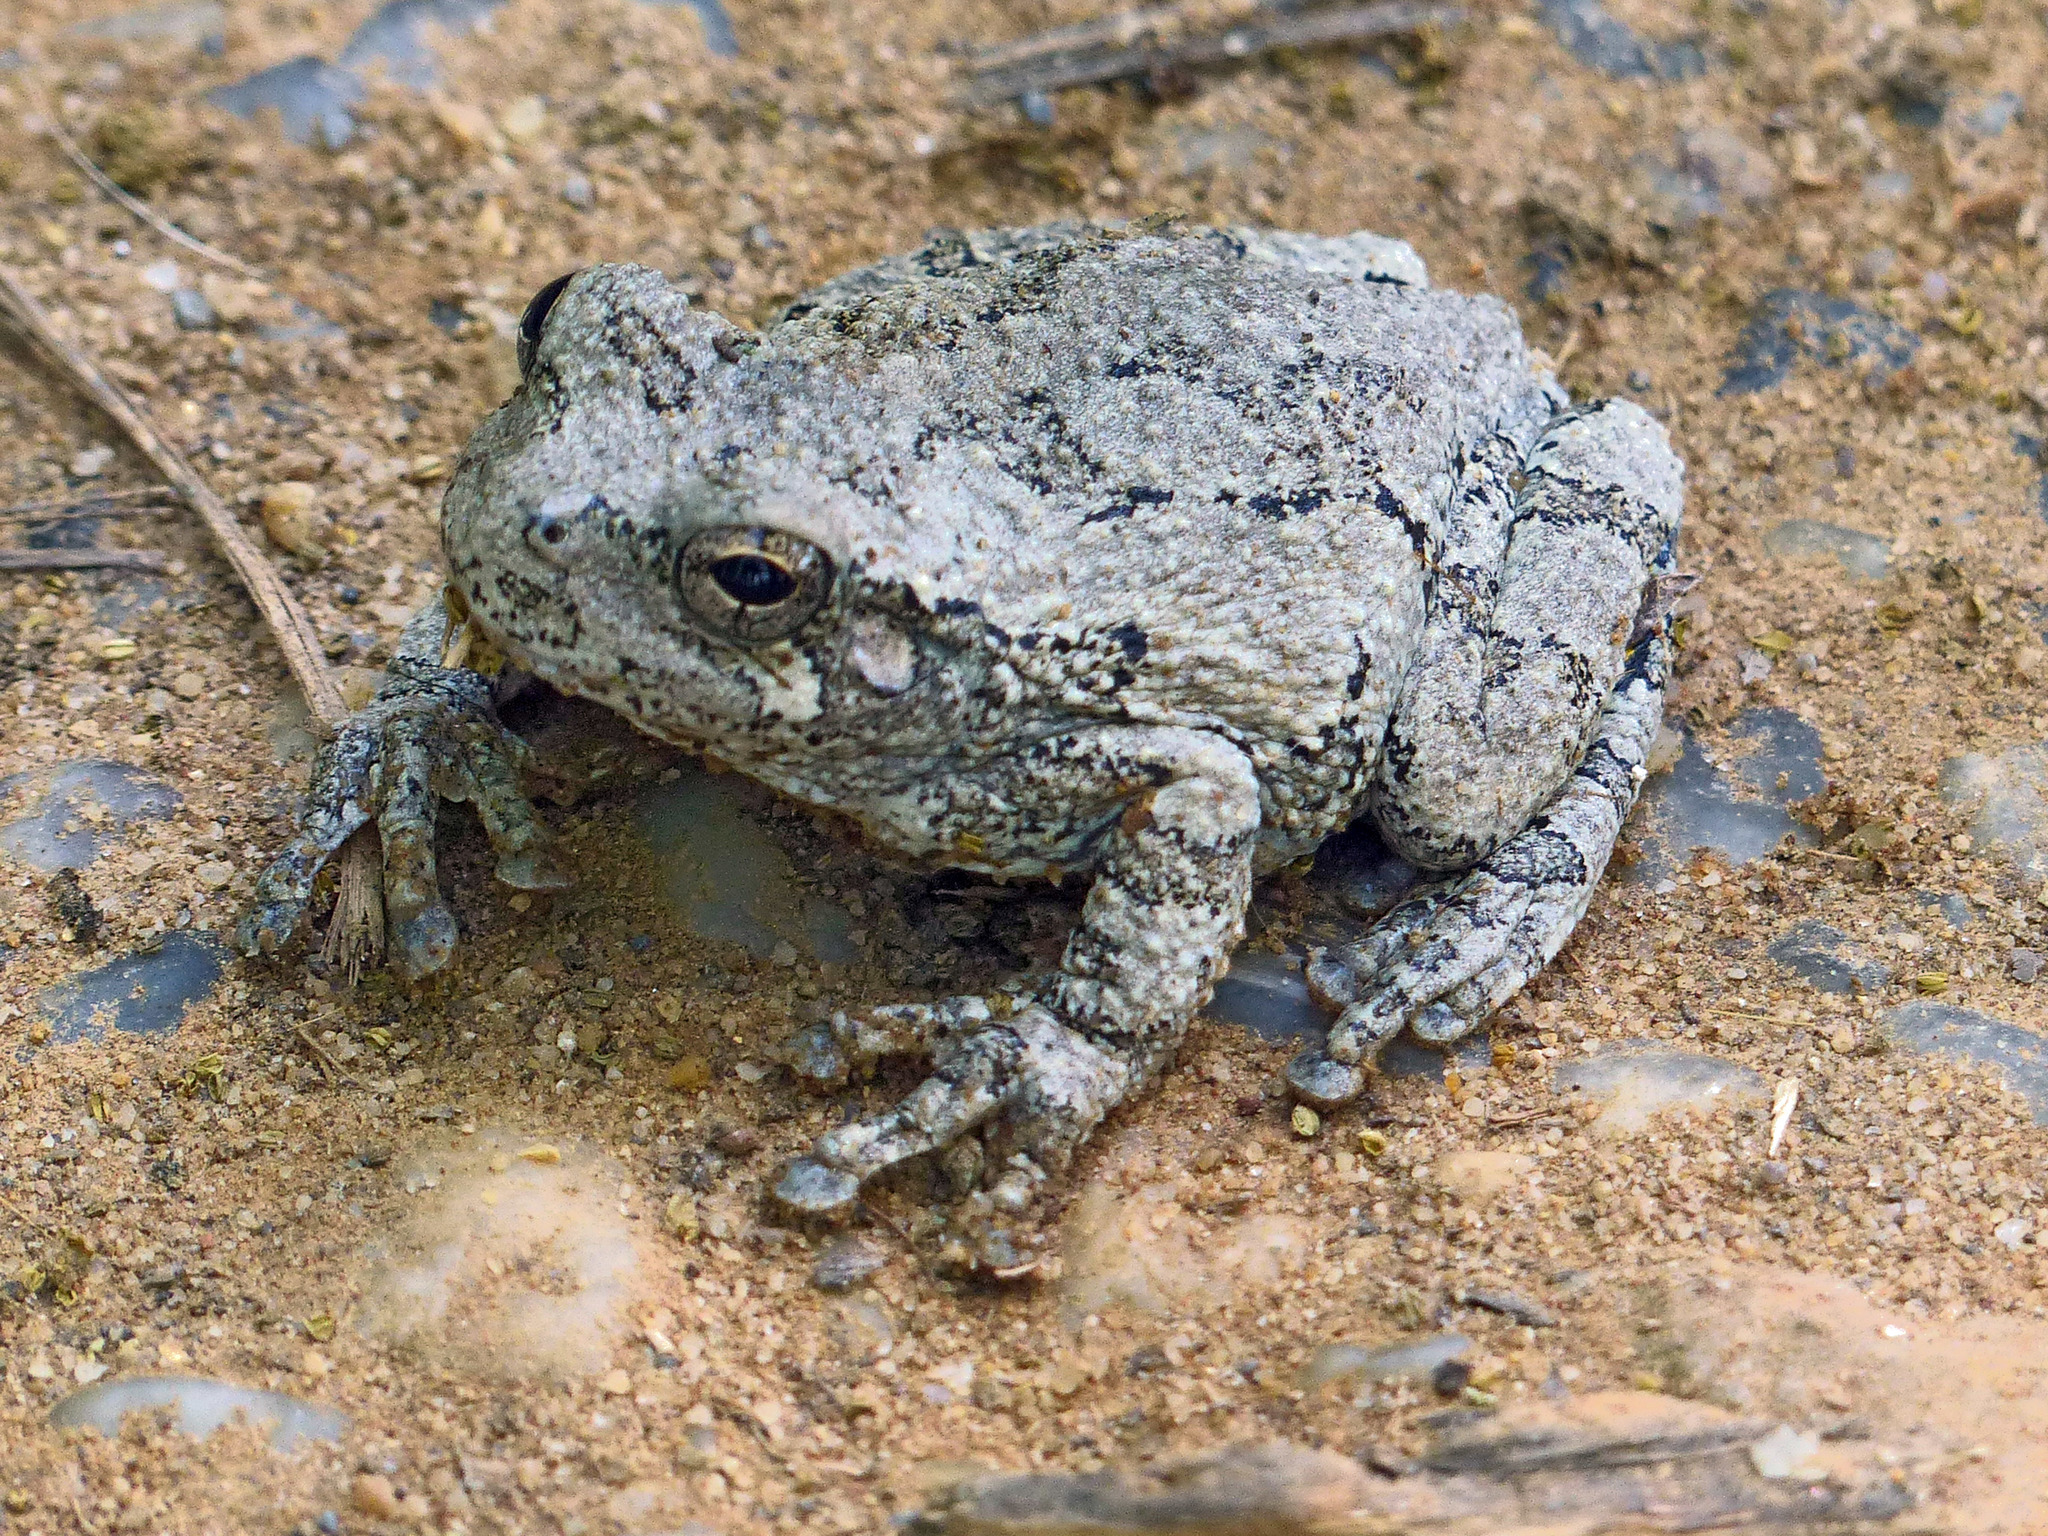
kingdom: Animalia
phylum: Chordata
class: Amphibia
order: Anura
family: Hylidae
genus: Hyla
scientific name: Hyla
